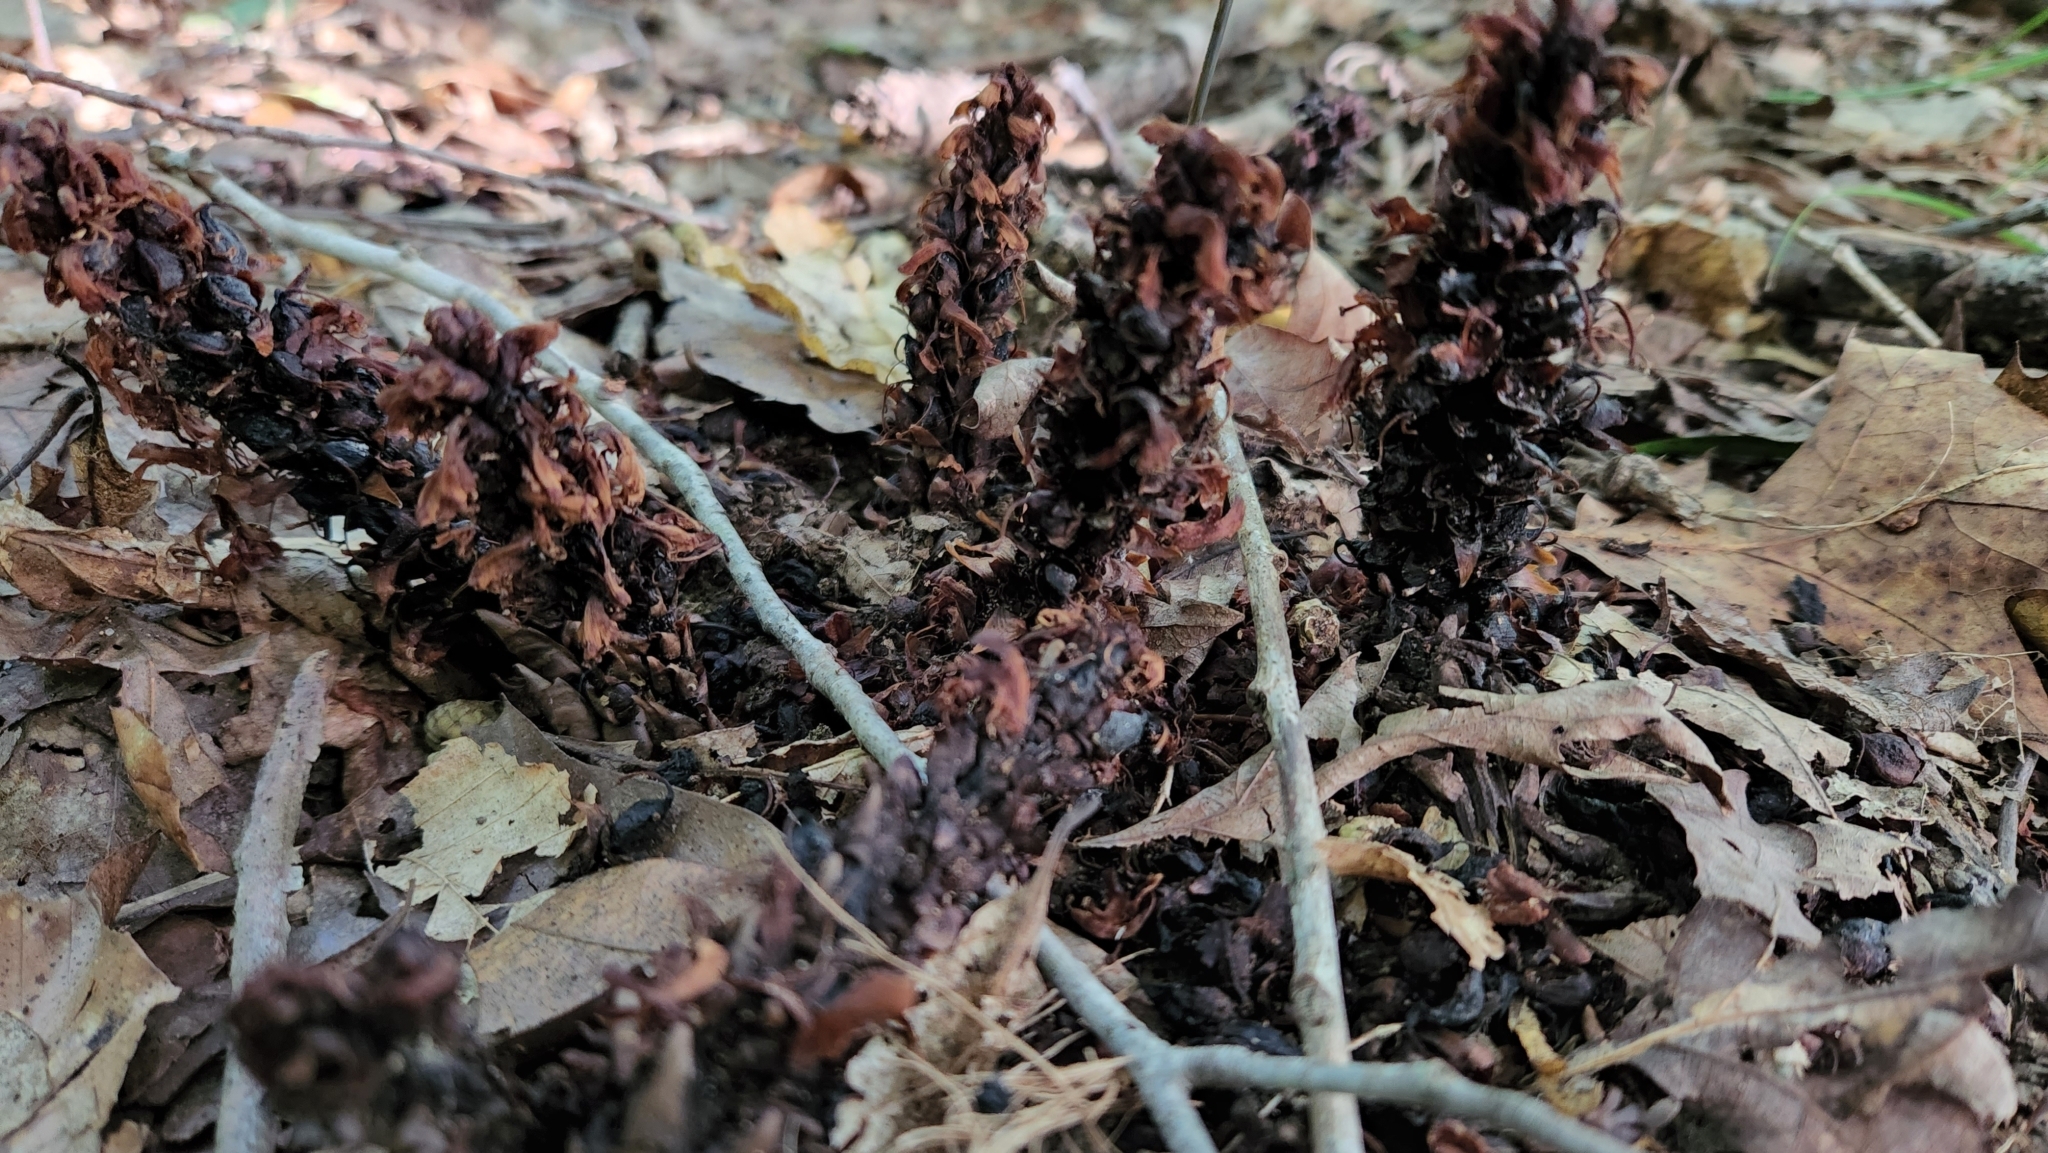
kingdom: Plantae
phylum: Tracheophyta
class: Magnoliopsida
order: Lamiales
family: Orobanchaceae
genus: Conopholis
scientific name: Conopholis americana
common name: American cancer-root
